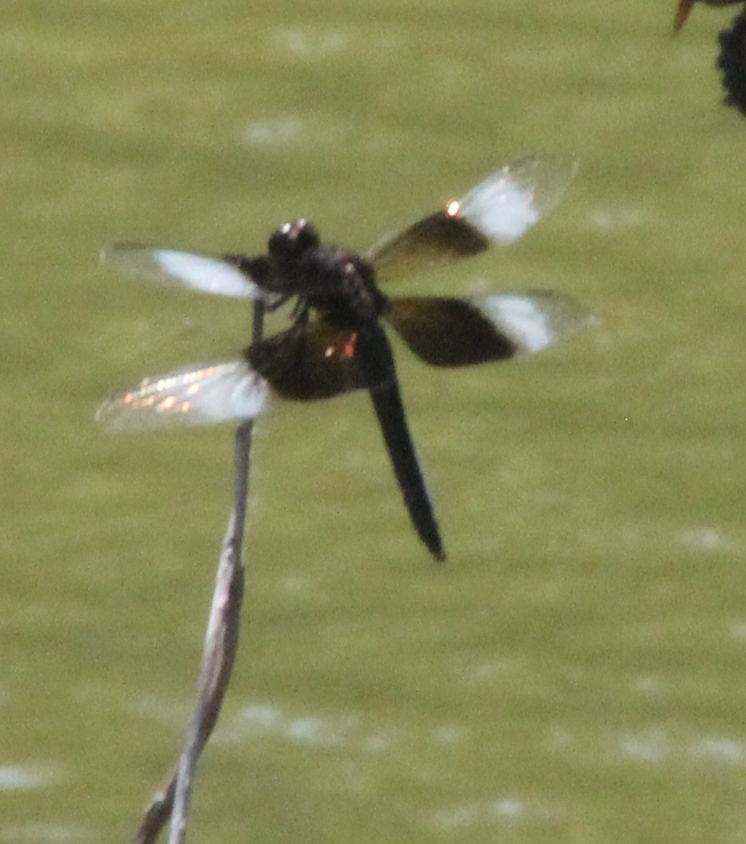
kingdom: Animalia
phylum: Arthropoda
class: Insecta
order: Odonata
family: Libellulidae
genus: Libellula
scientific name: Libellula luctuosa
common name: Widow skimmer
